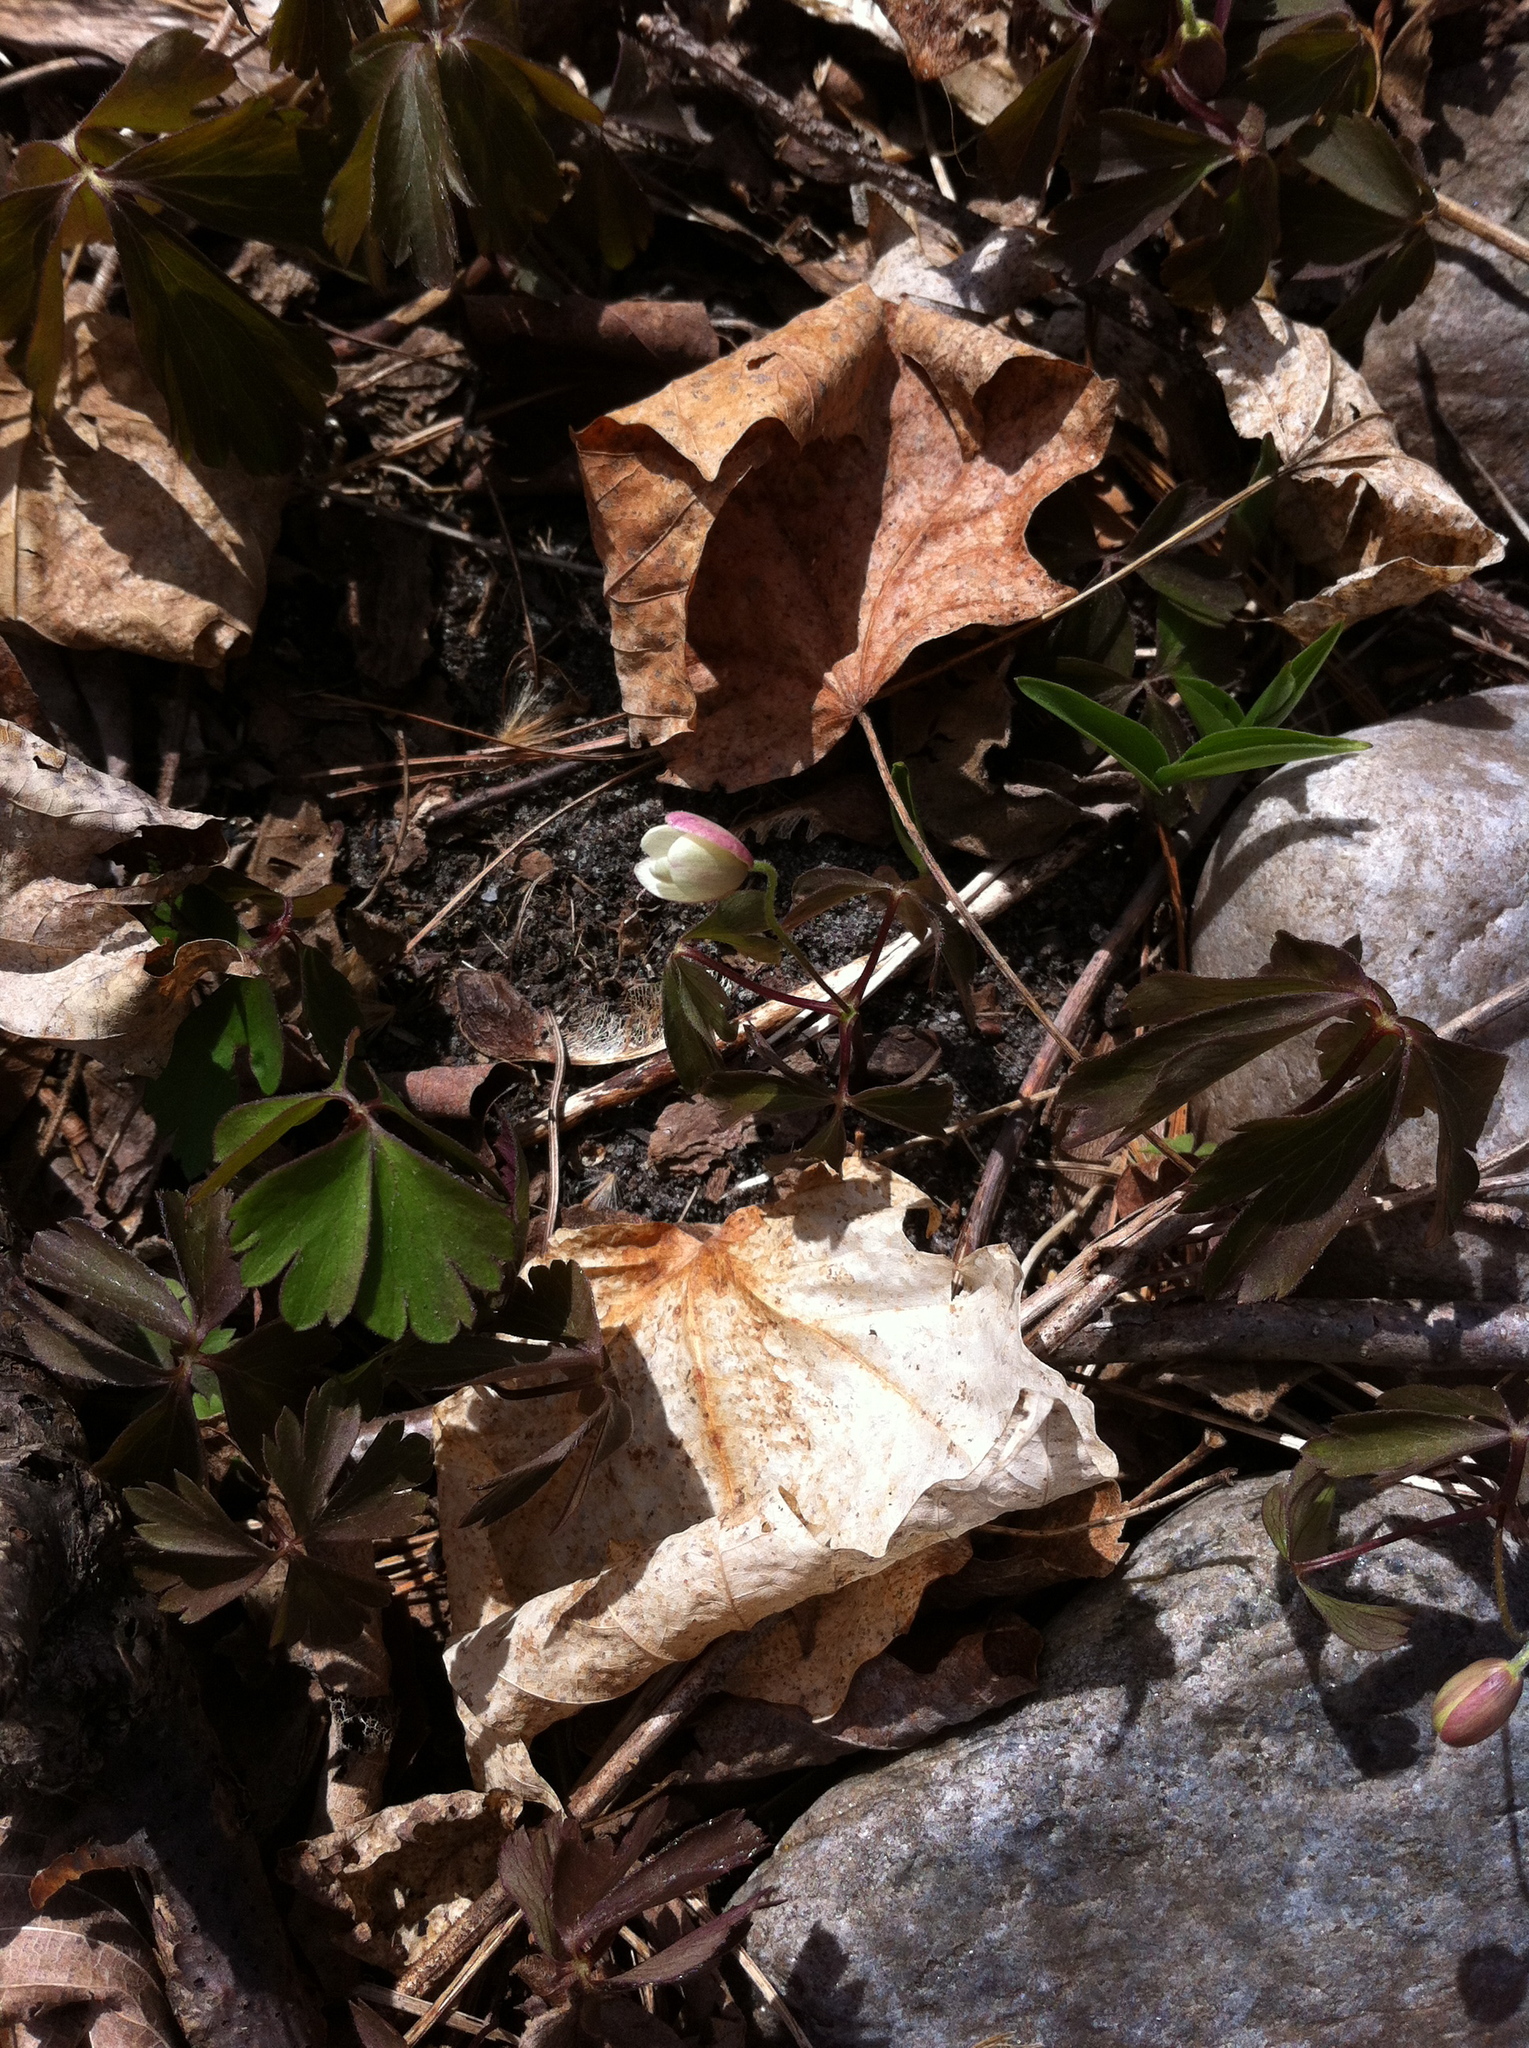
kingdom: Plantae
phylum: Tracheophyta
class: Magnoliopsida
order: Ranunculales
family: Ranunculaceae
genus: Anemone
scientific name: Anemone quinquefolia
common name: Wood anemone
